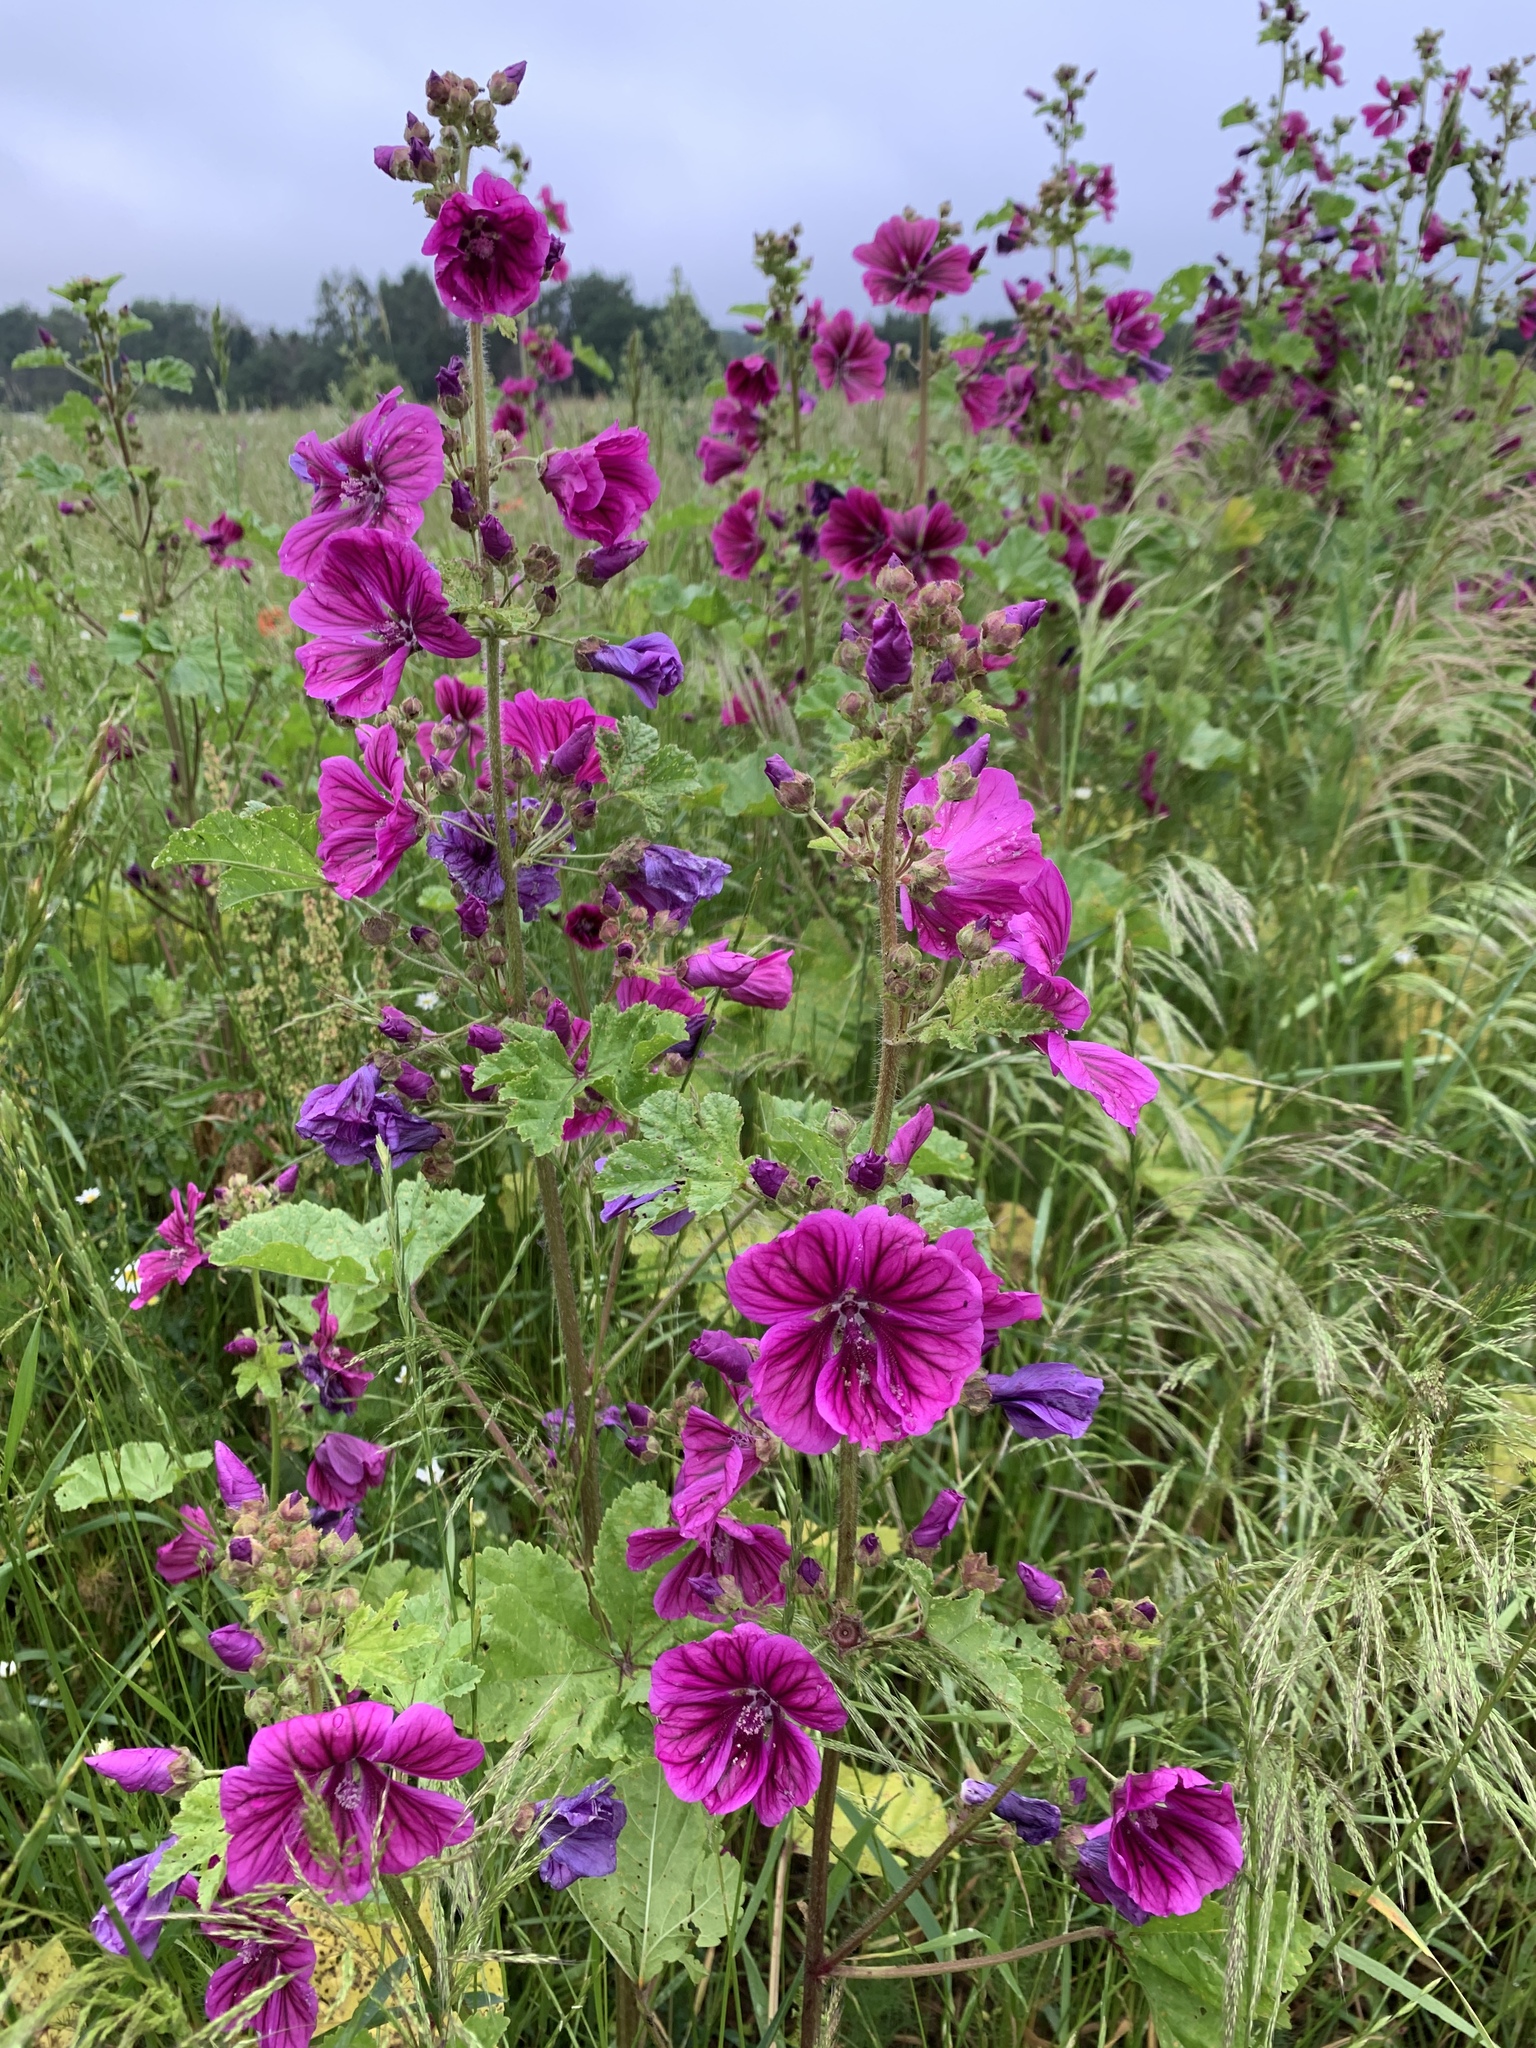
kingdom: Plantae
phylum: Tracheophyta
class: Magnoliopsida
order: Malvales
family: Malvaceae
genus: Alcea
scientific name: Alcea rosea
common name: Hollyhock
